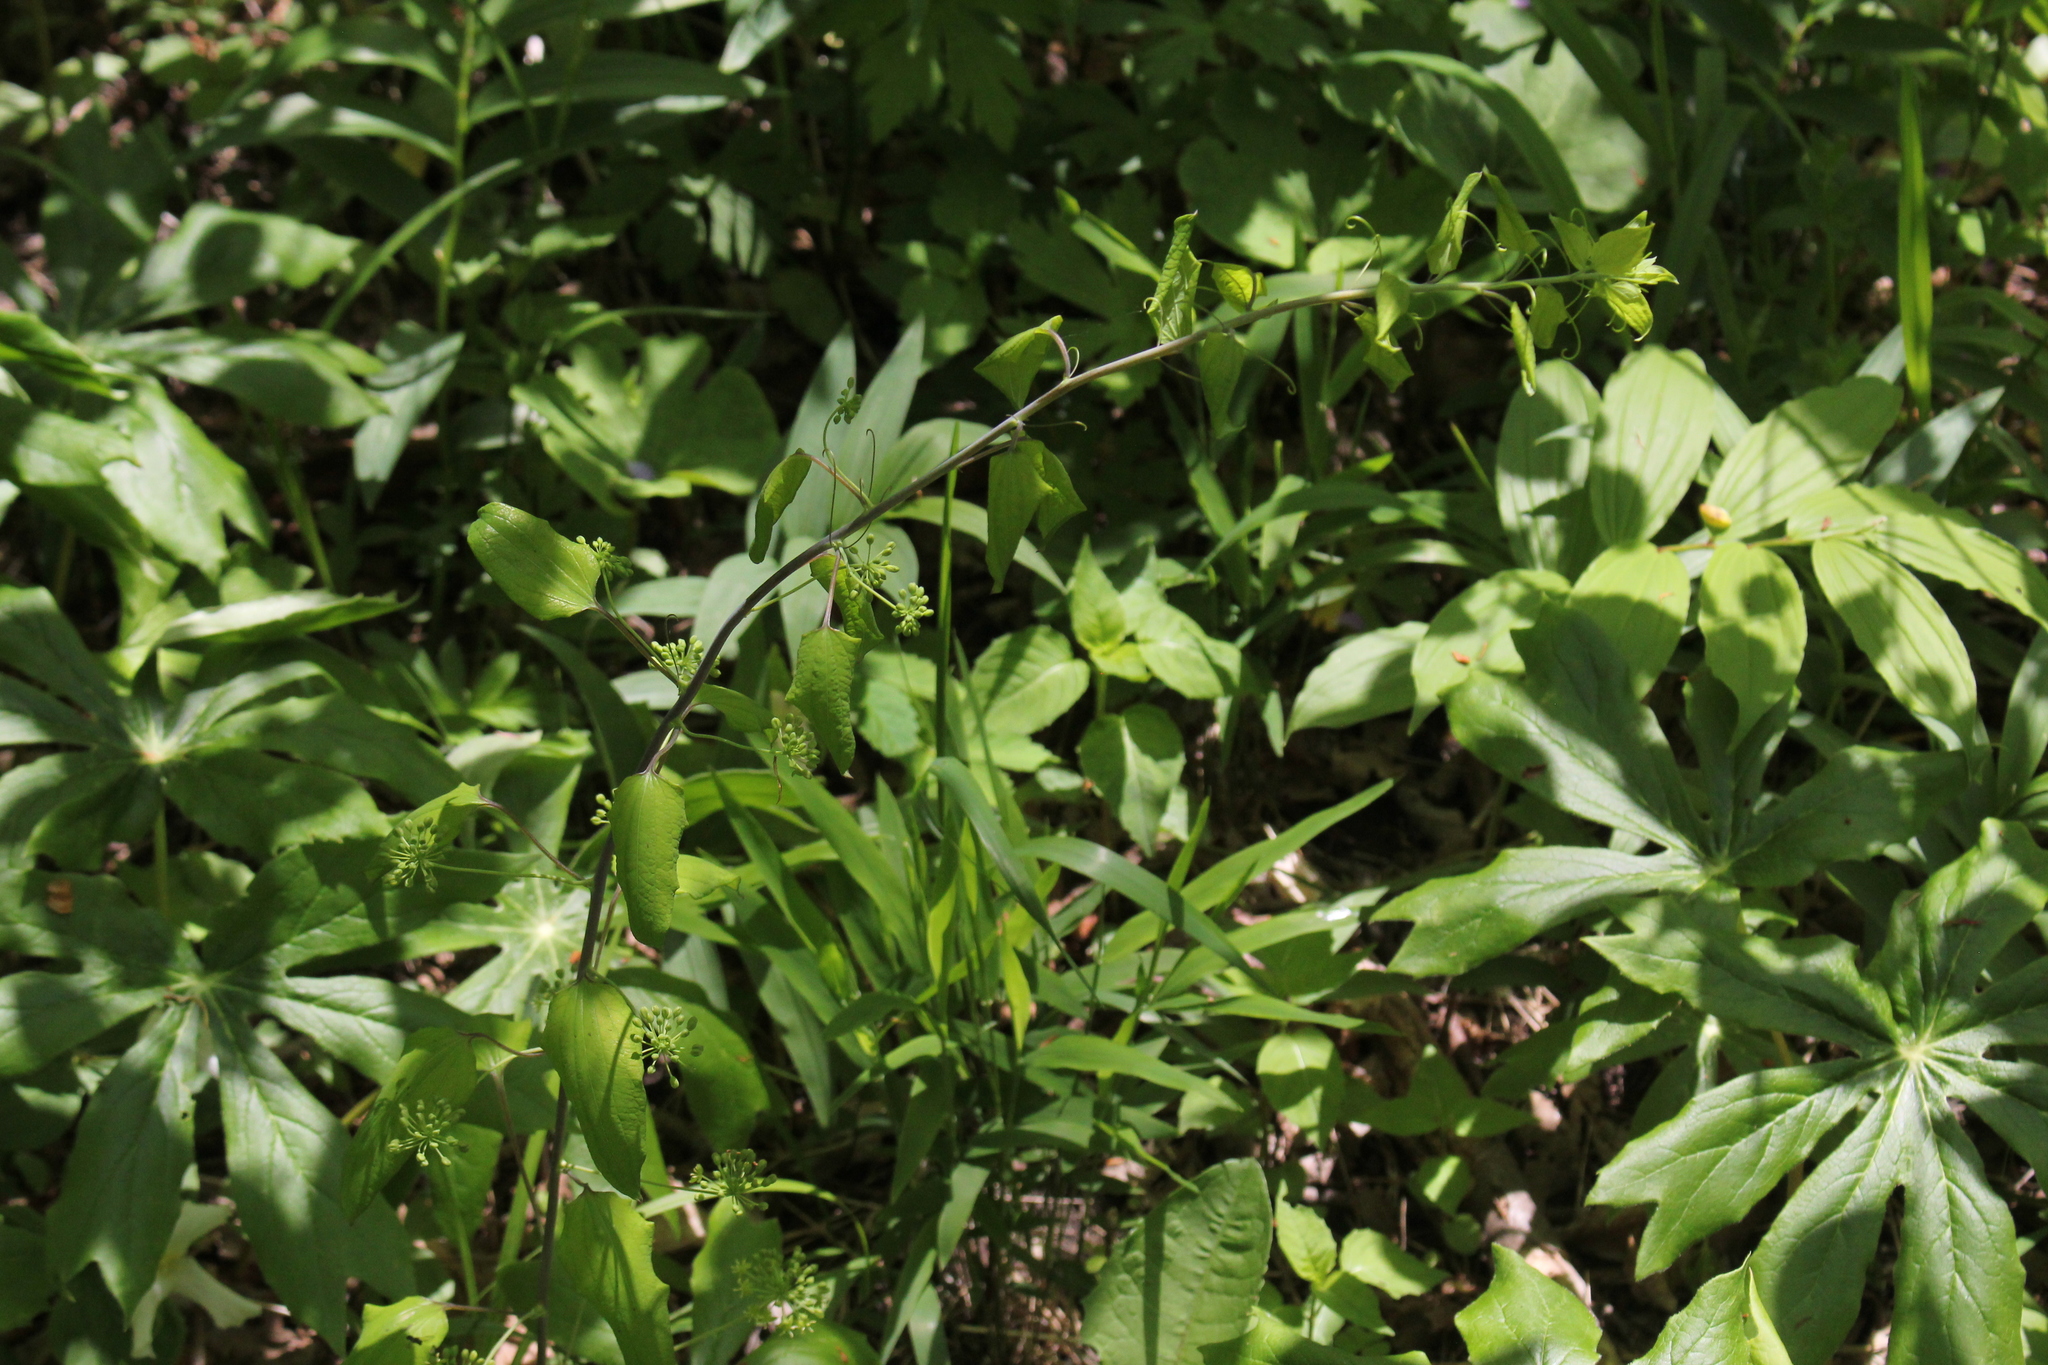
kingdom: Plantae
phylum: Tracheophyta
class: Liliopsida
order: Liliales
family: Smilacaceae
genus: Smilax
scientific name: Smilax lasioneura
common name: Blue ridge carrionflower
